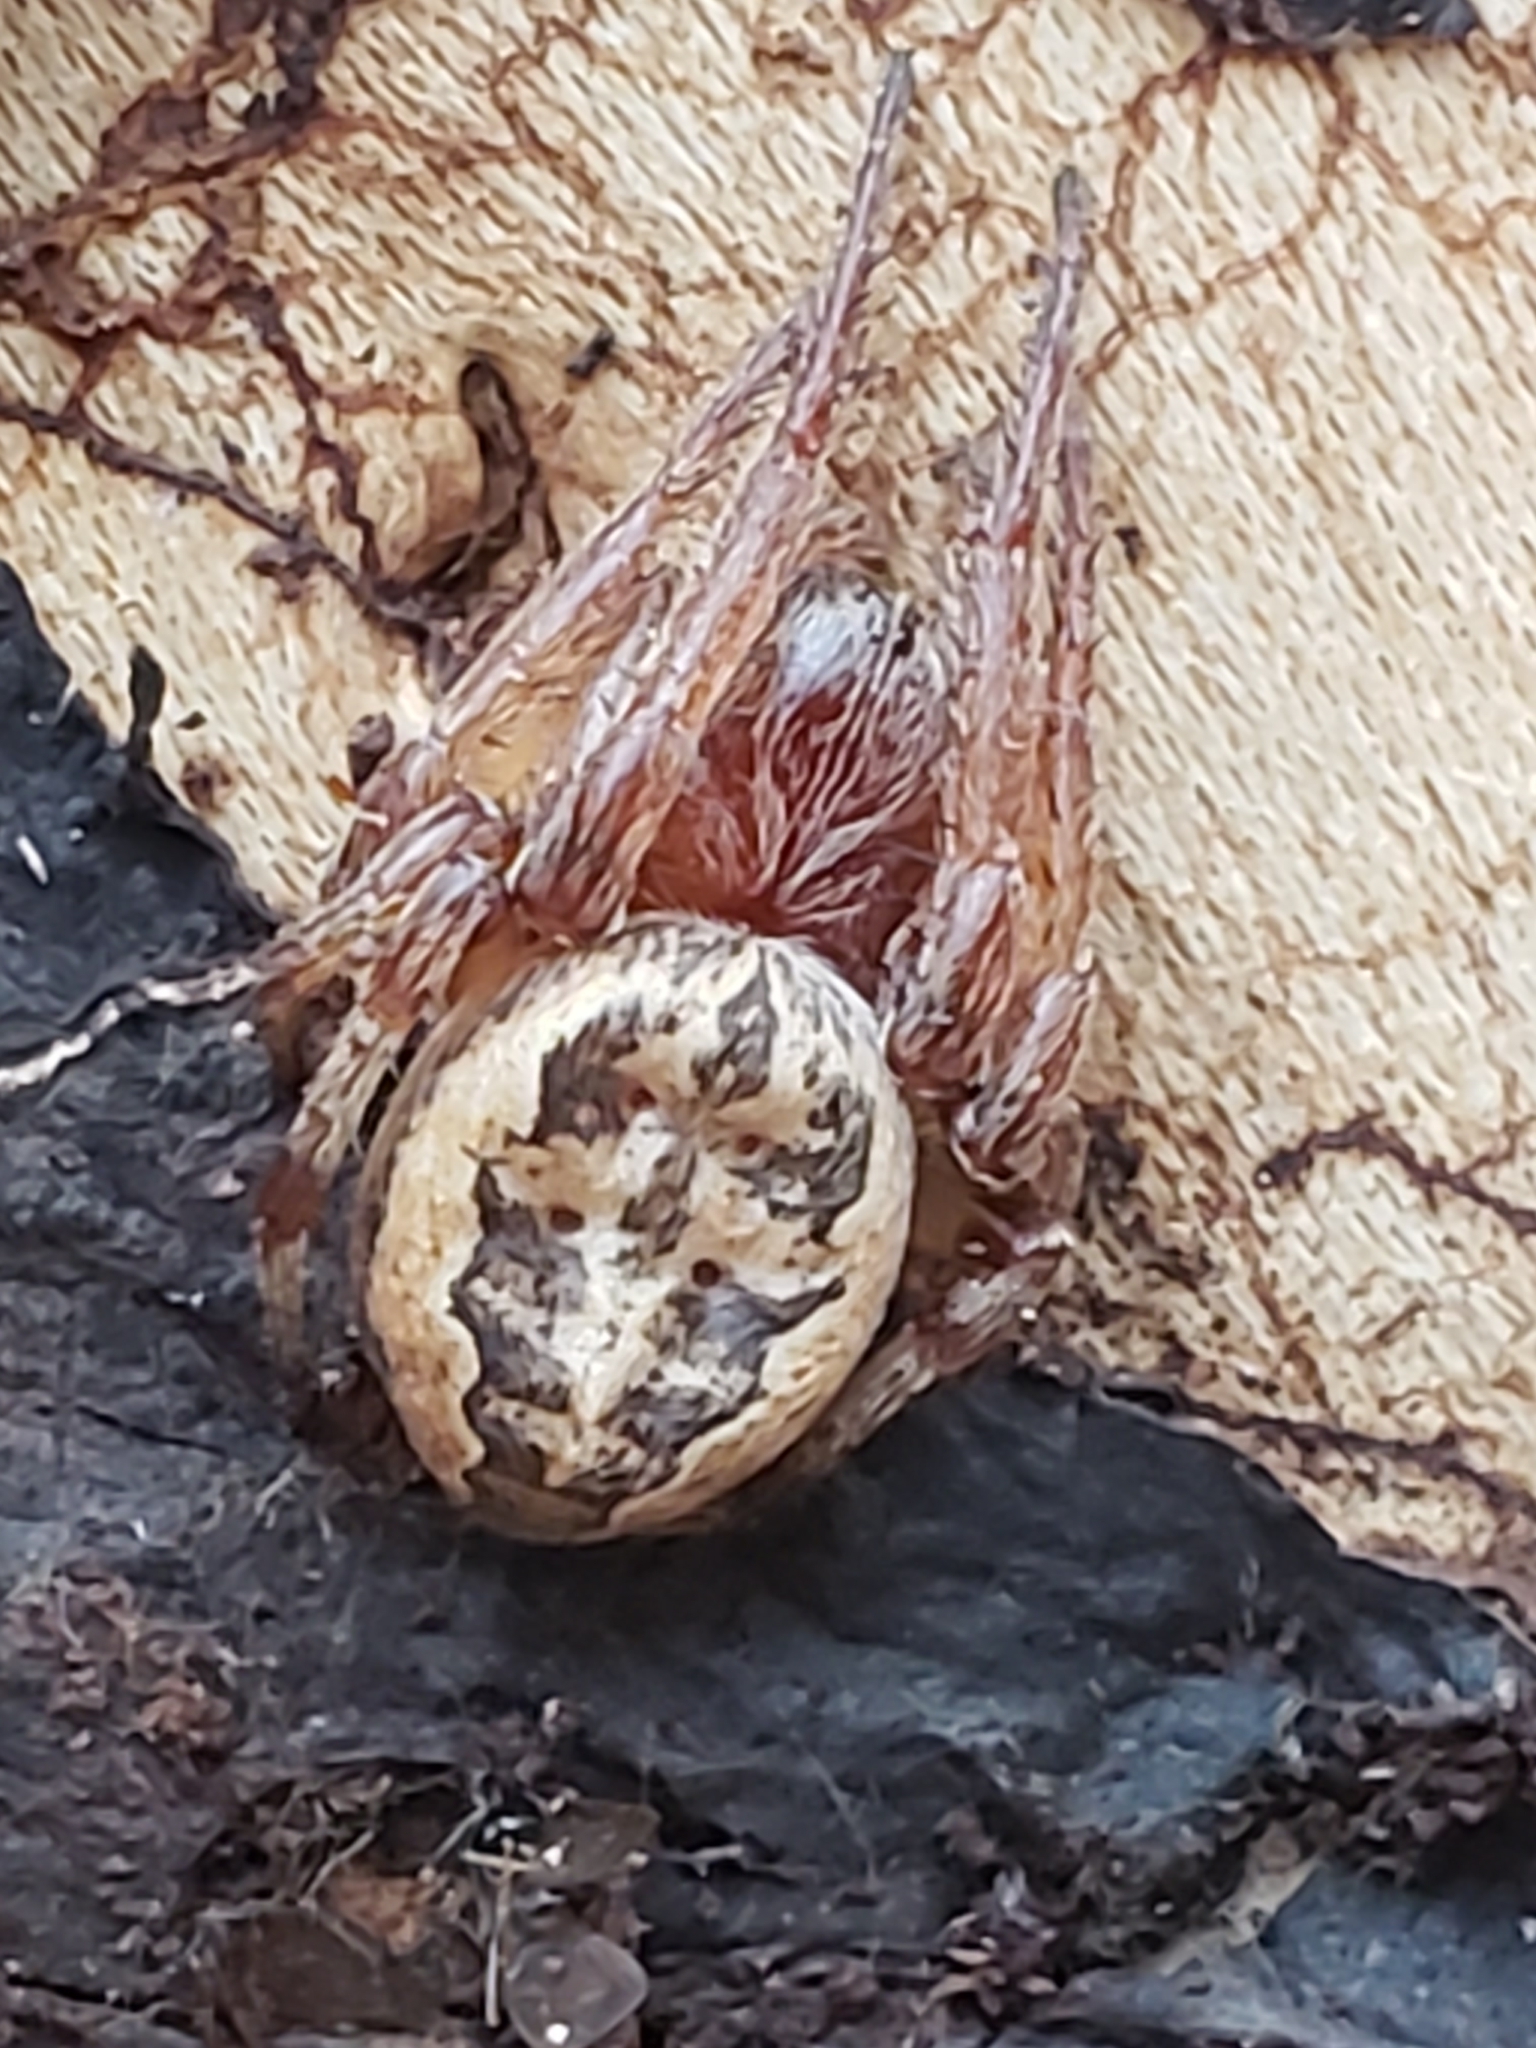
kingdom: Animalia
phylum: Arthropoda
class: Arachnida
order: Araneae
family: Araneidae
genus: Larinioides
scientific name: Larinioides cornutus
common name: Furrow orbweaver
